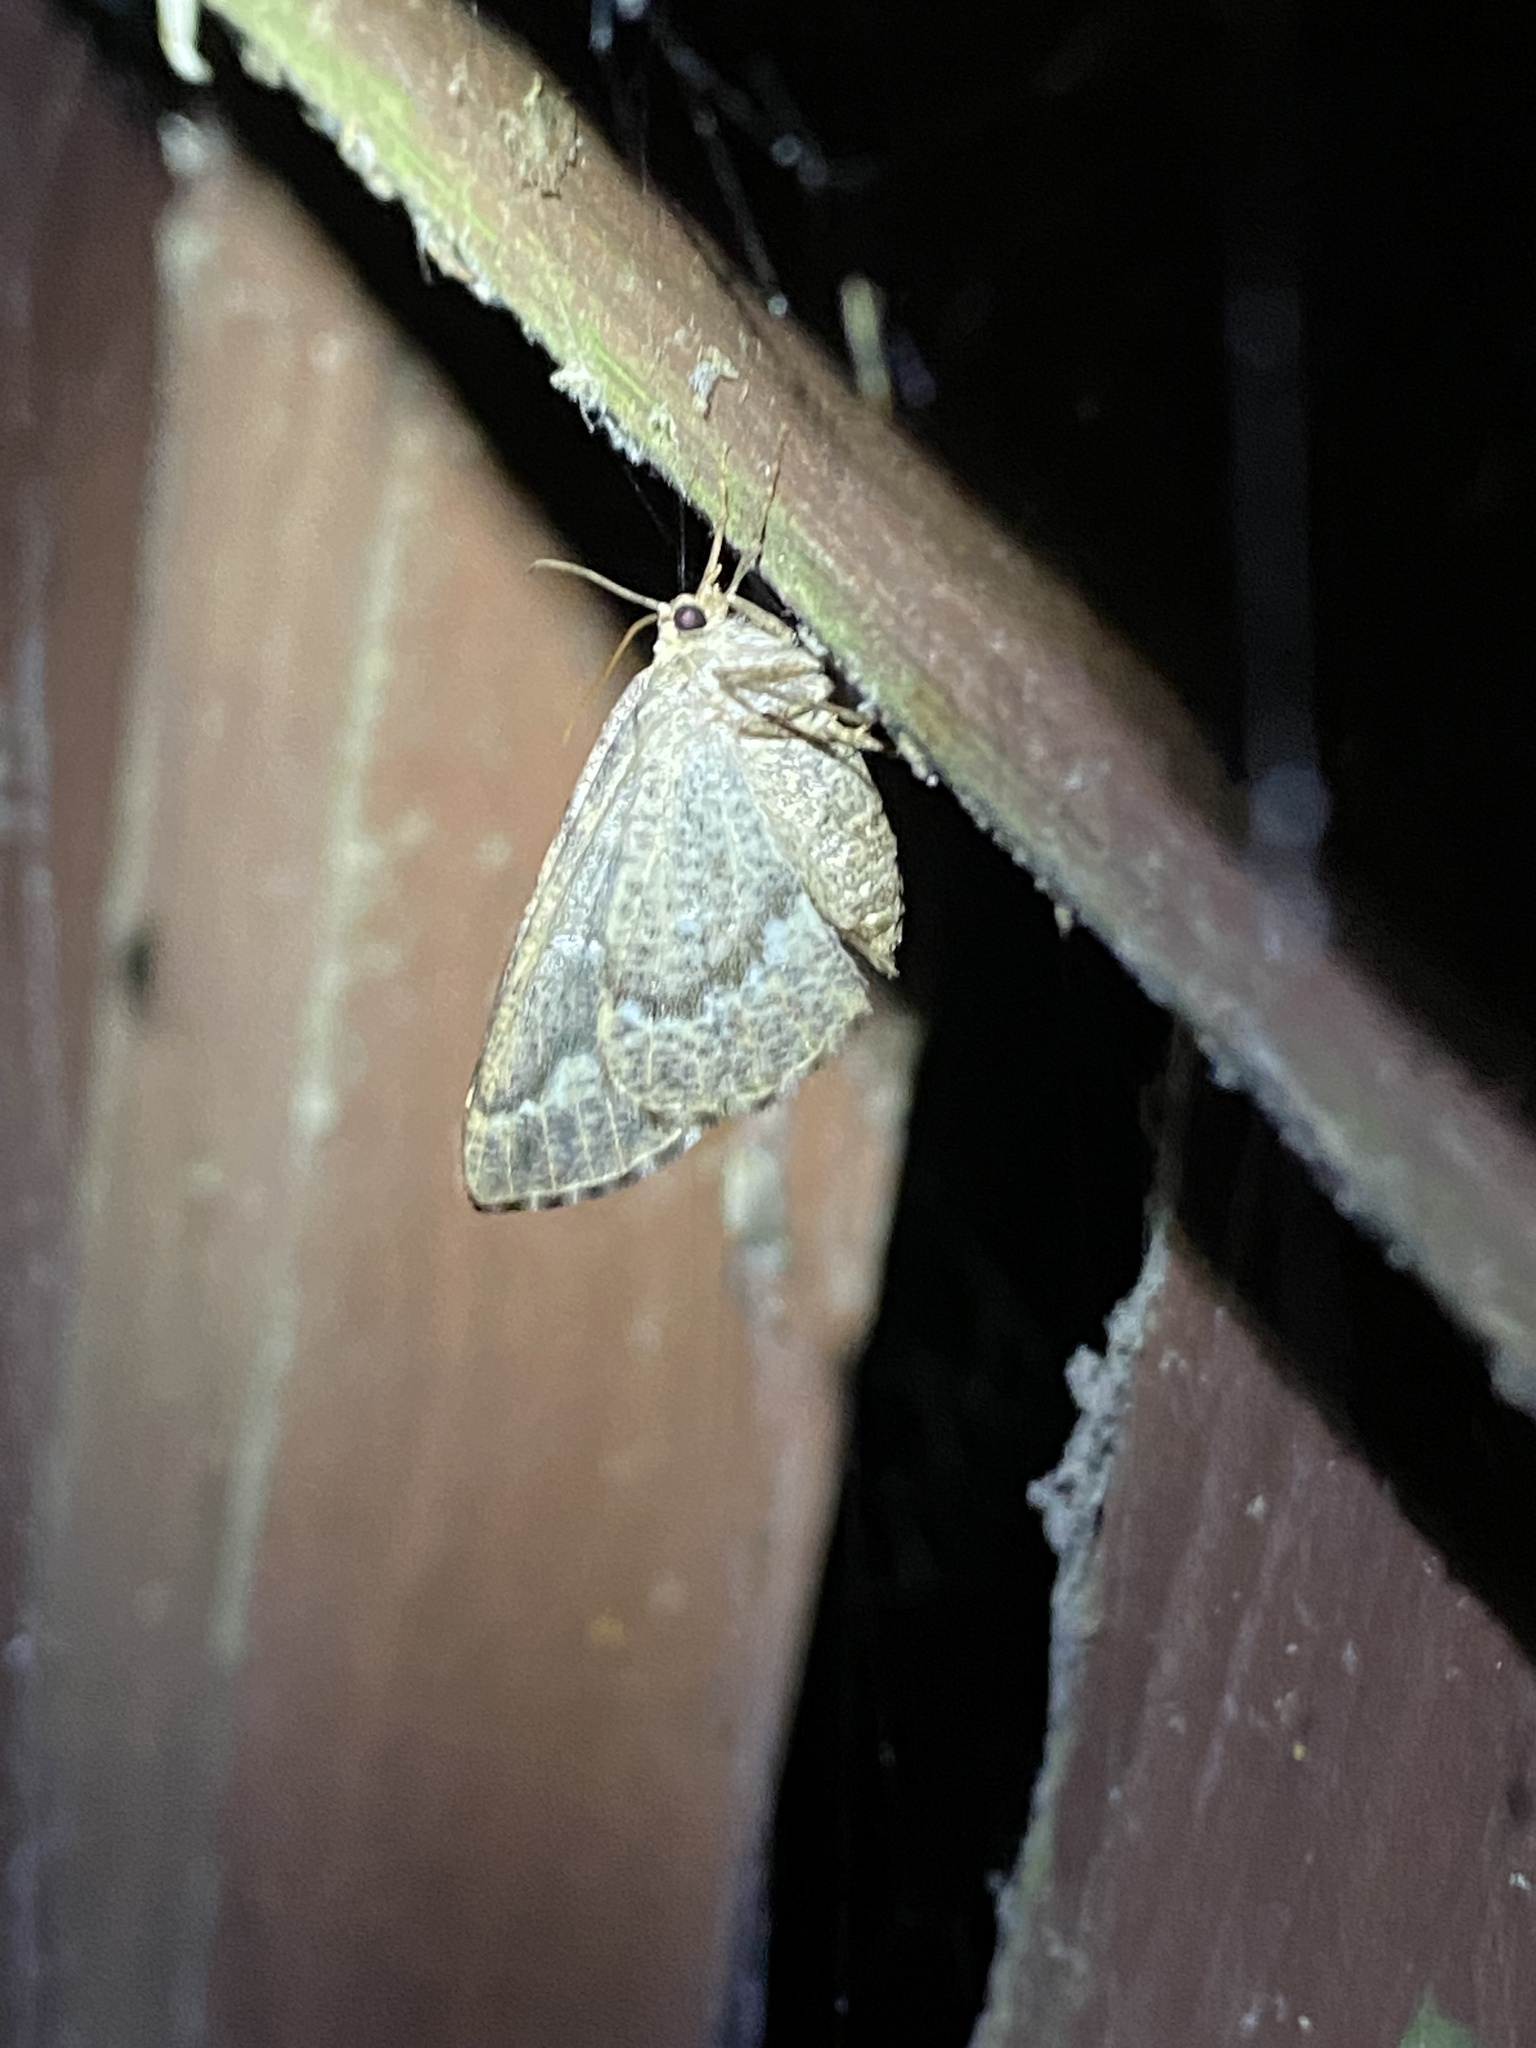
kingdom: Animalia
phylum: Arthropoda
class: Insecta
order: Lepidoptera
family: Geometridae
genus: Caripeta
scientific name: Caripeta divisata
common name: Gray spruce looper
